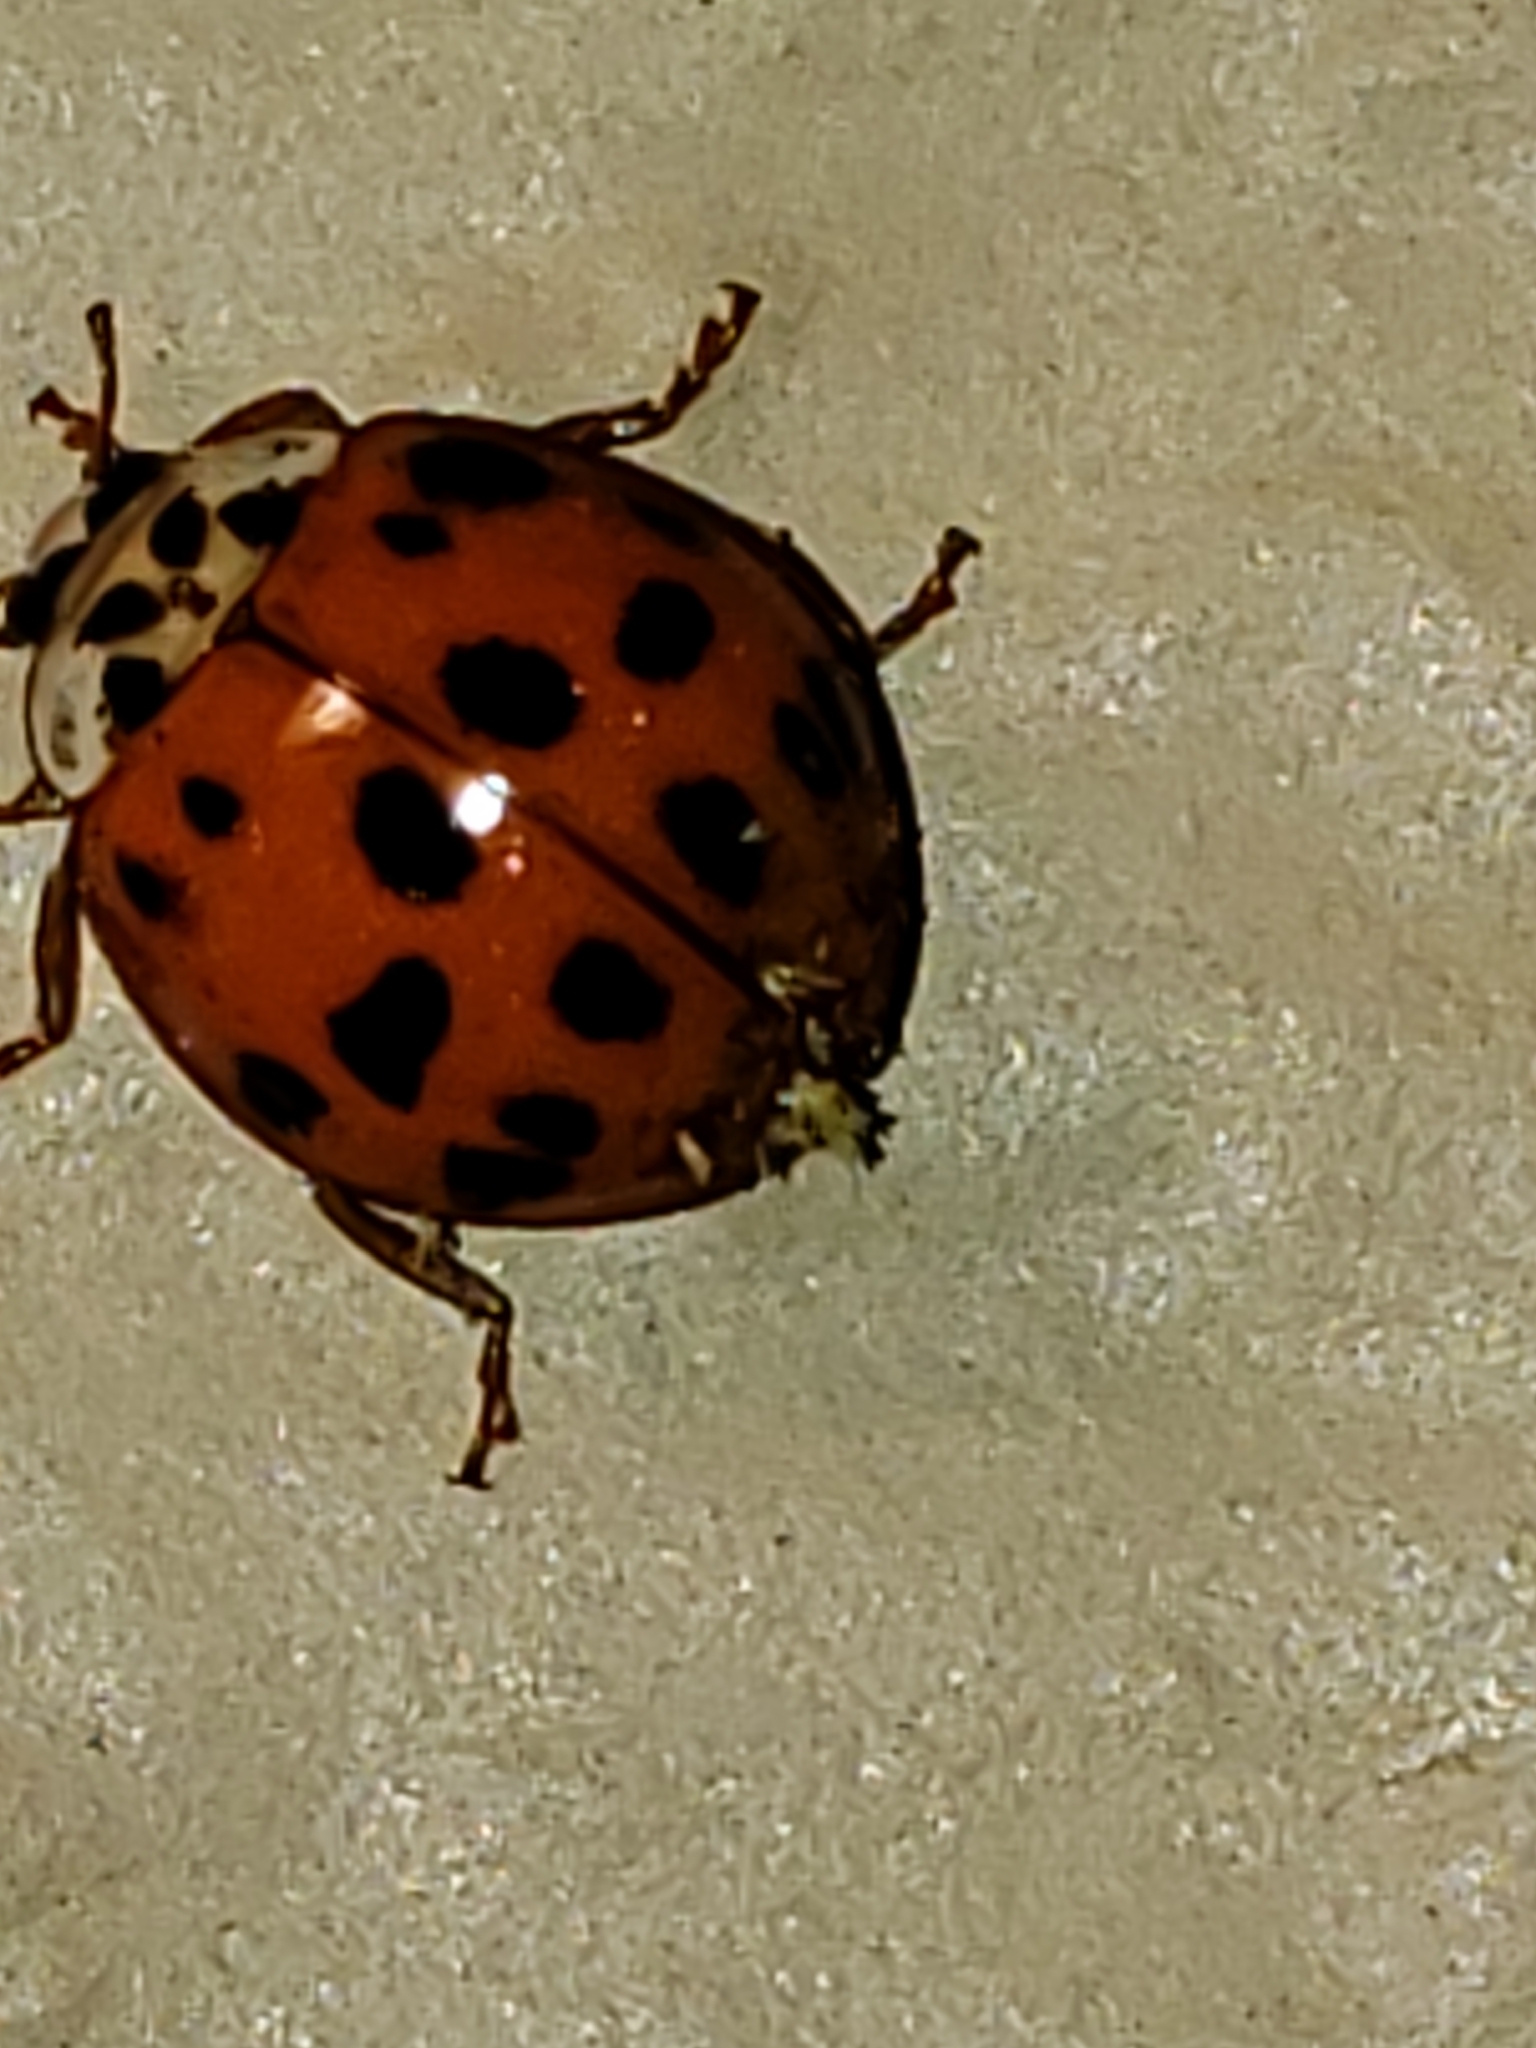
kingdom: Animalia
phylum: Arthropoda
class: Insecta
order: Coleoptera
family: Coccinellidae
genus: Harmonia
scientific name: Harmonia axyridis
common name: Harlequin ladybird
